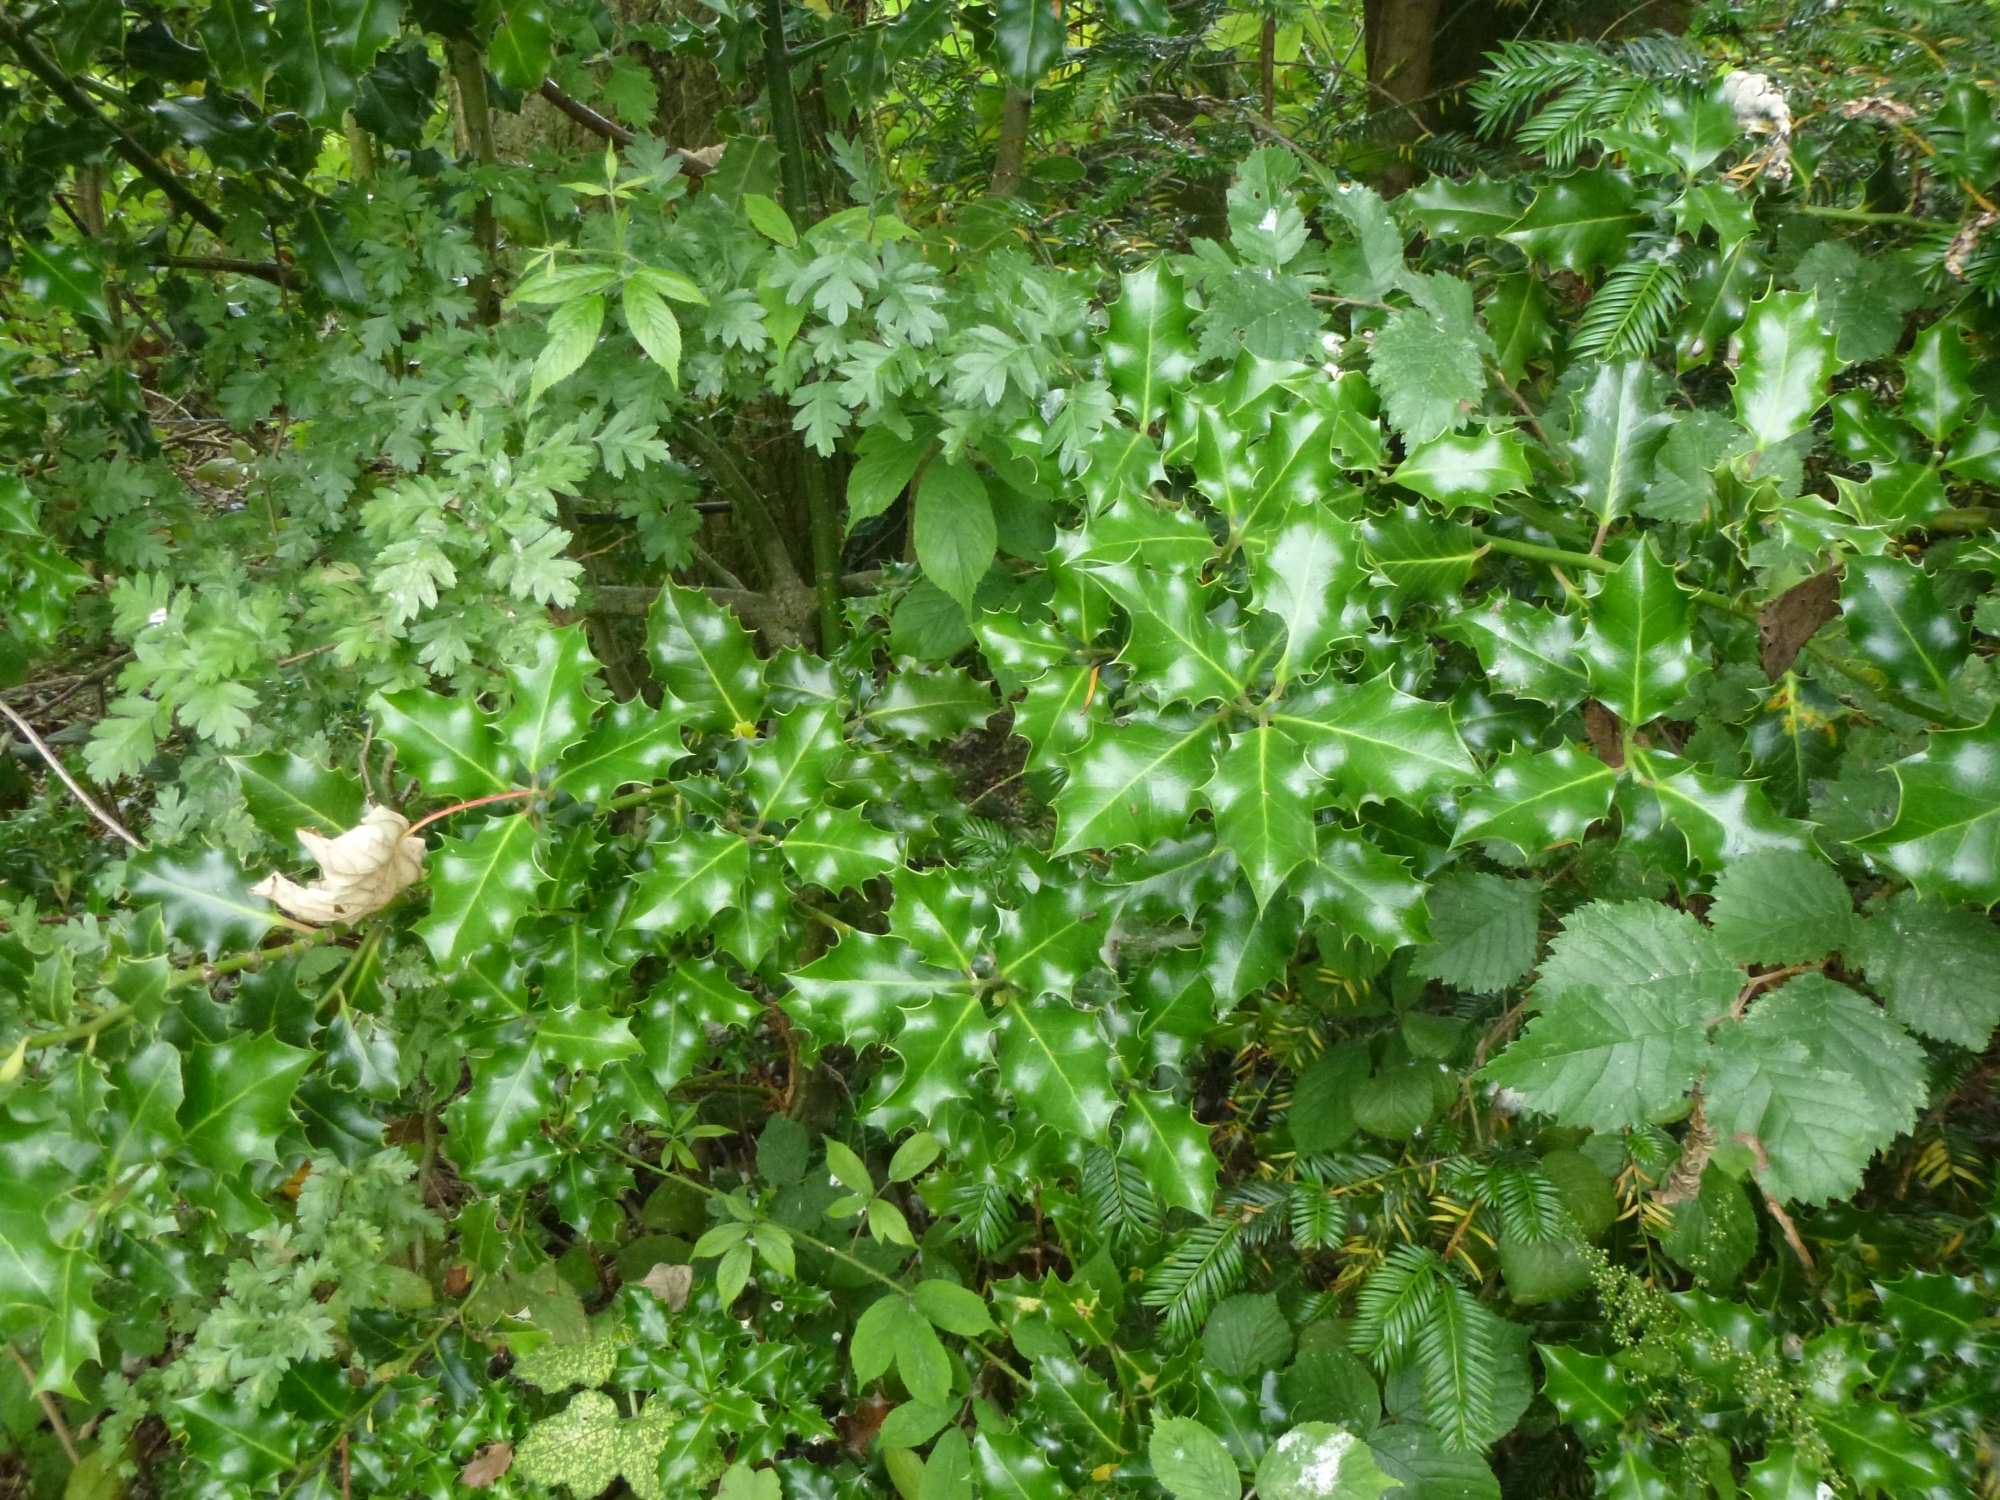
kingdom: Plantae
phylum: Tracheophyta
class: Magnoliopsida
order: Aquifoliales
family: Aquifoliaceae
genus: Ilex
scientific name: Ilex aquifolium
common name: English holly
